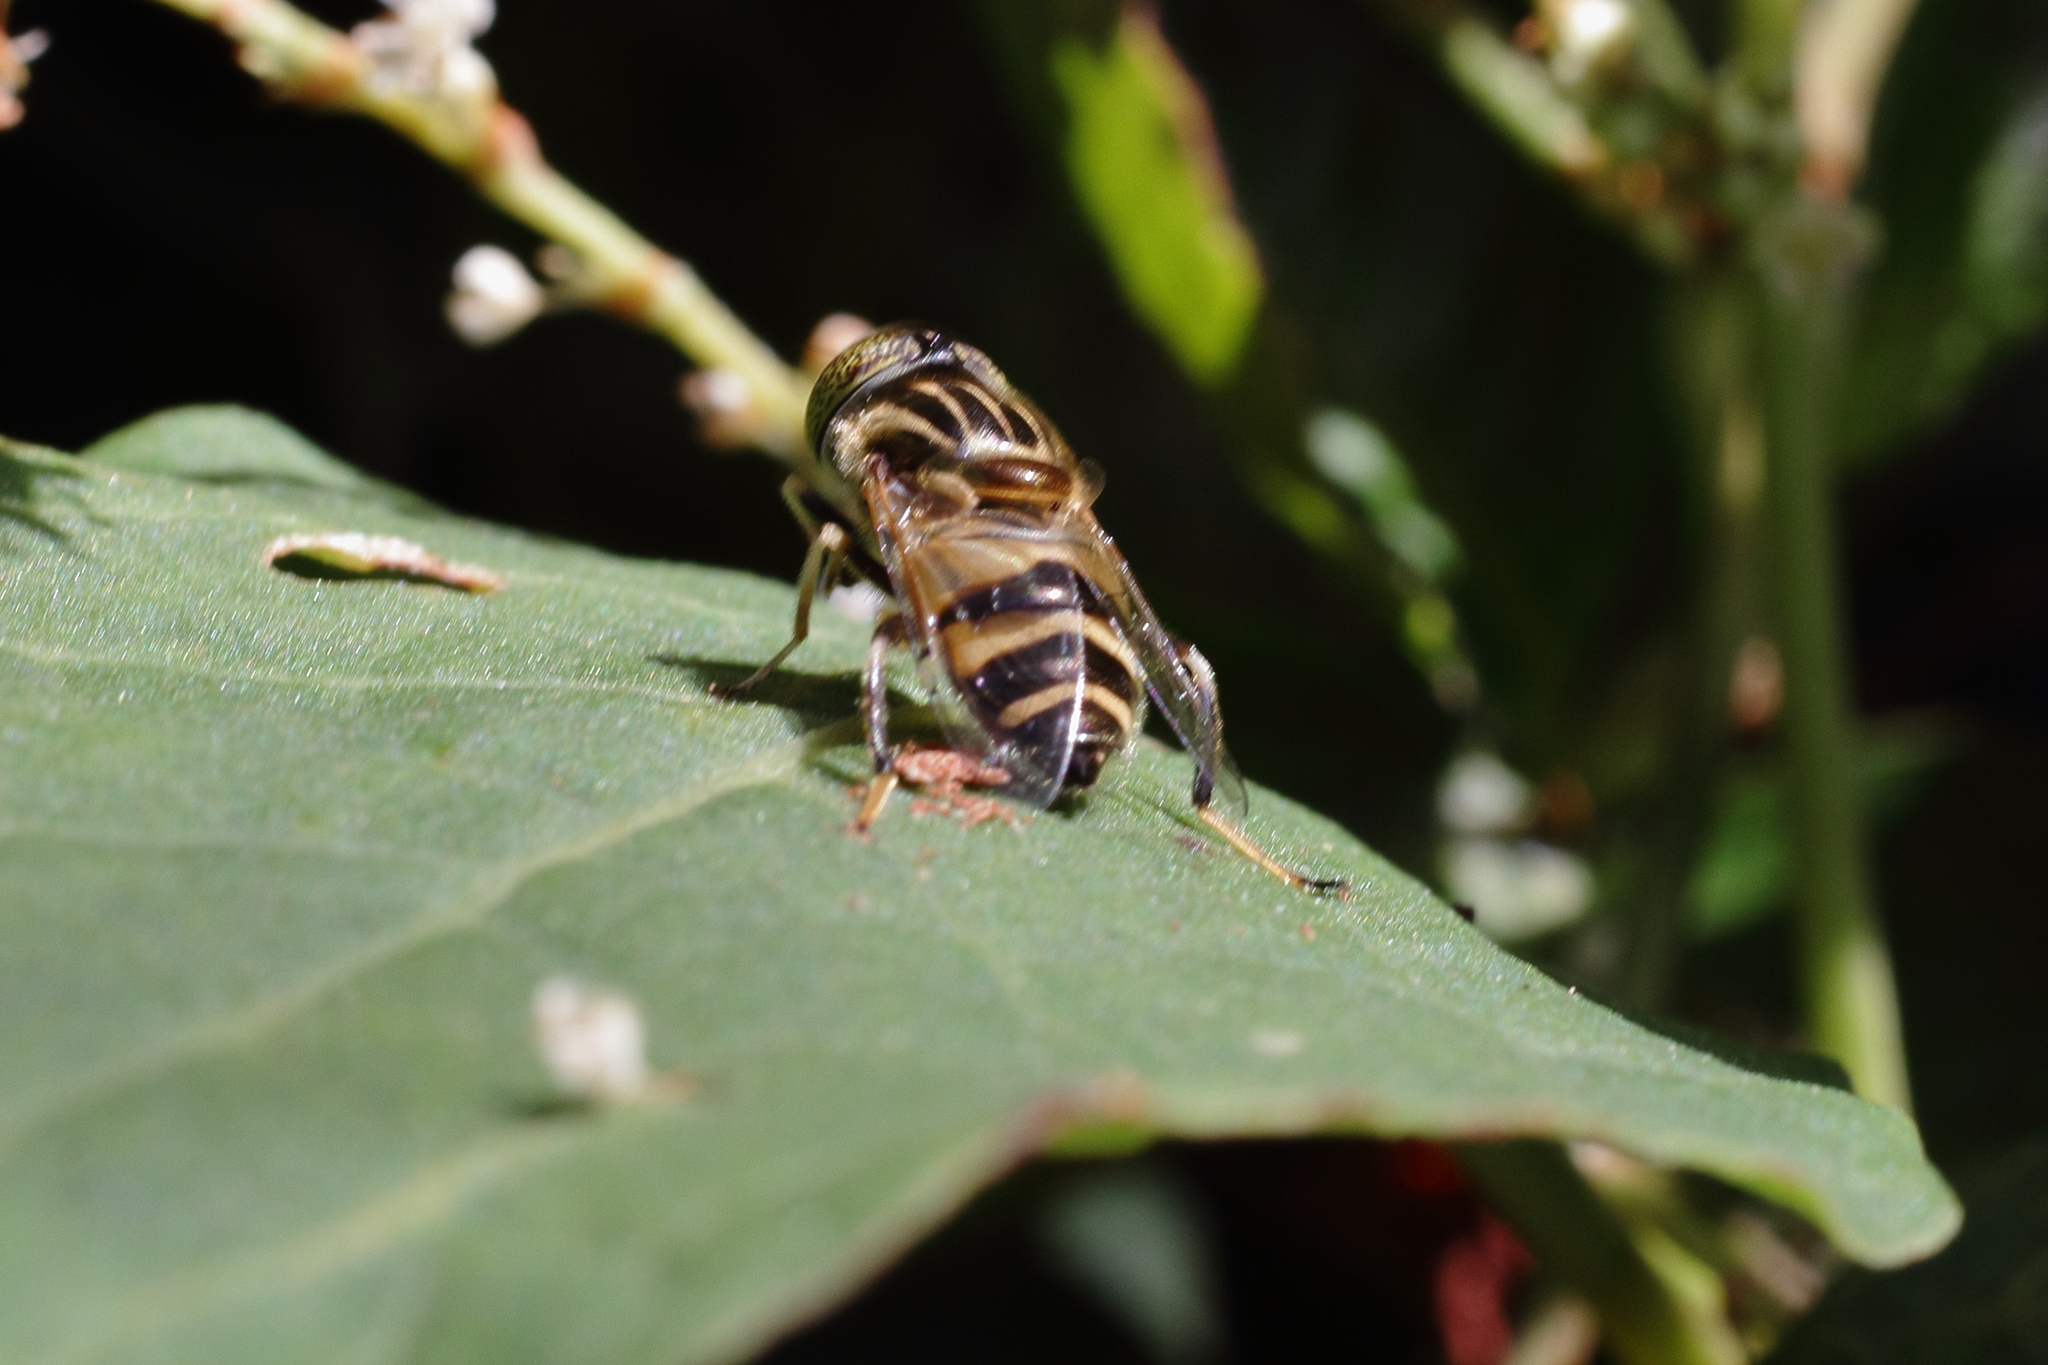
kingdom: Animalia
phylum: Arthropoda
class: Insecta
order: Diptera
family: Syrphidae
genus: Eristalinus
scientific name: Eristalinus quinquestriatus
